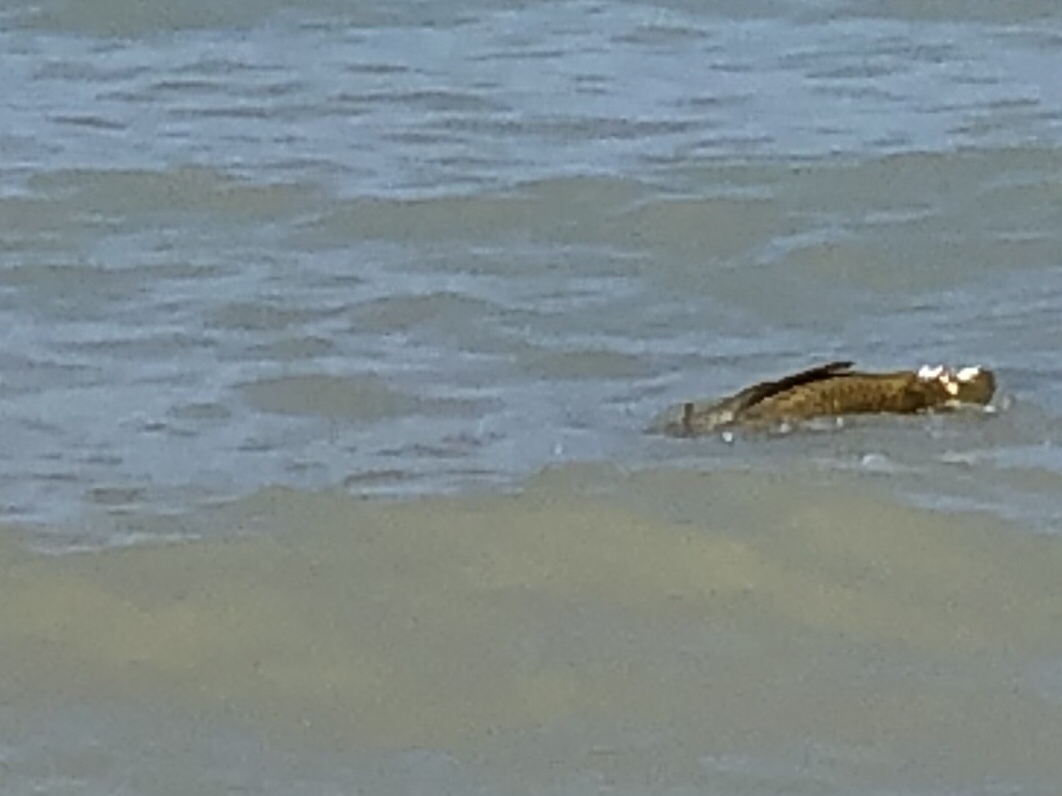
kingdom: Animalia
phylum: Chordata
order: Cypriniformes
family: Cyprinidae
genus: Cyprinus
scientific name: Cyprinus carpio
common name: Common carp
